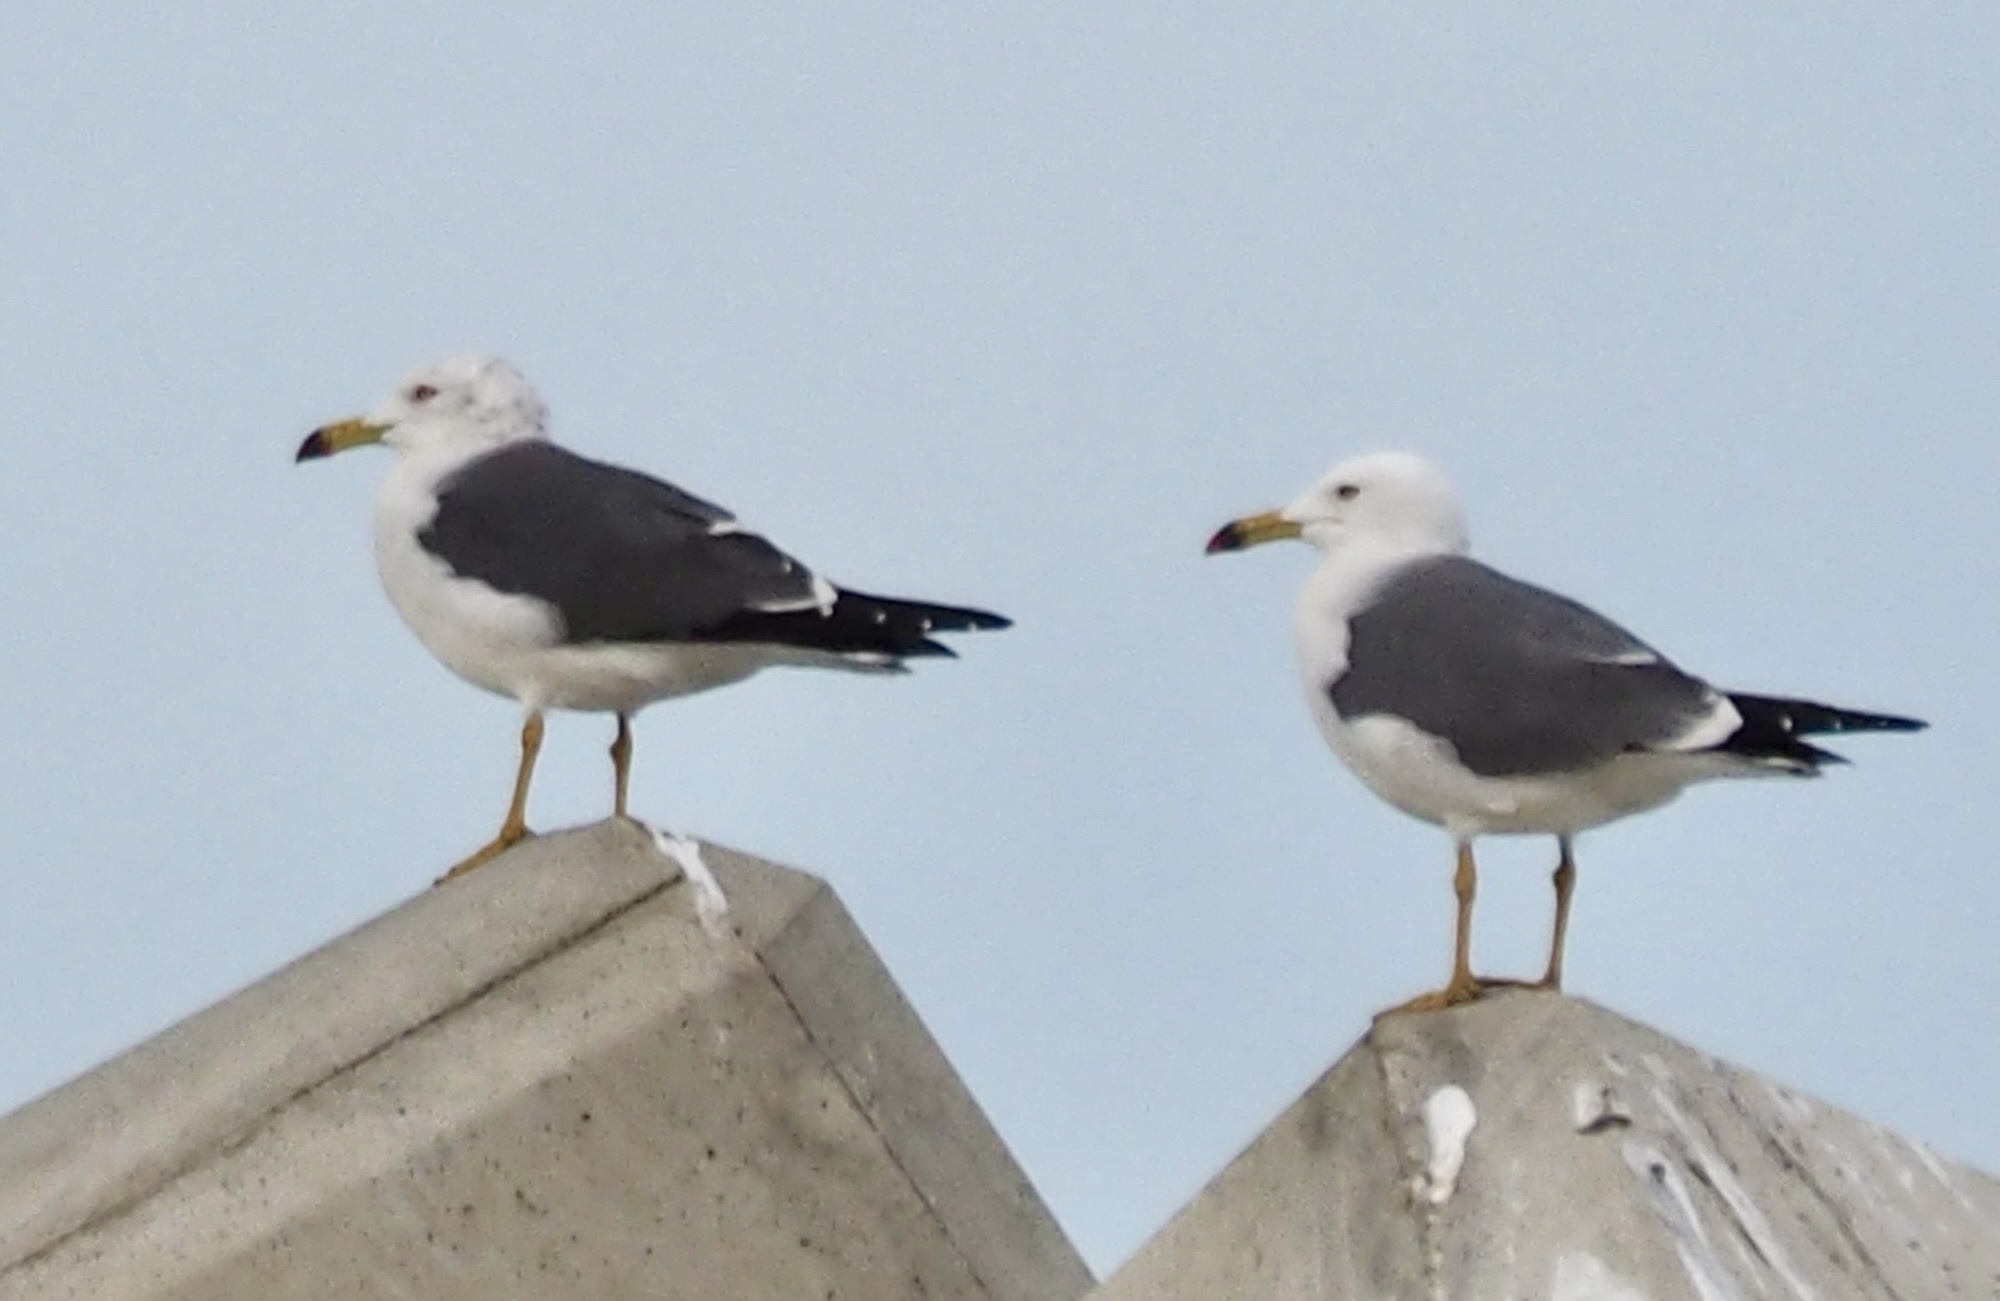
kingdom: Animalia
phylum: Chordata
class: Aves
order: Charadriiformes
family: Laridae
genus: Larus
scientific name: Larus crassirostris
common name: Black-tailed gull
